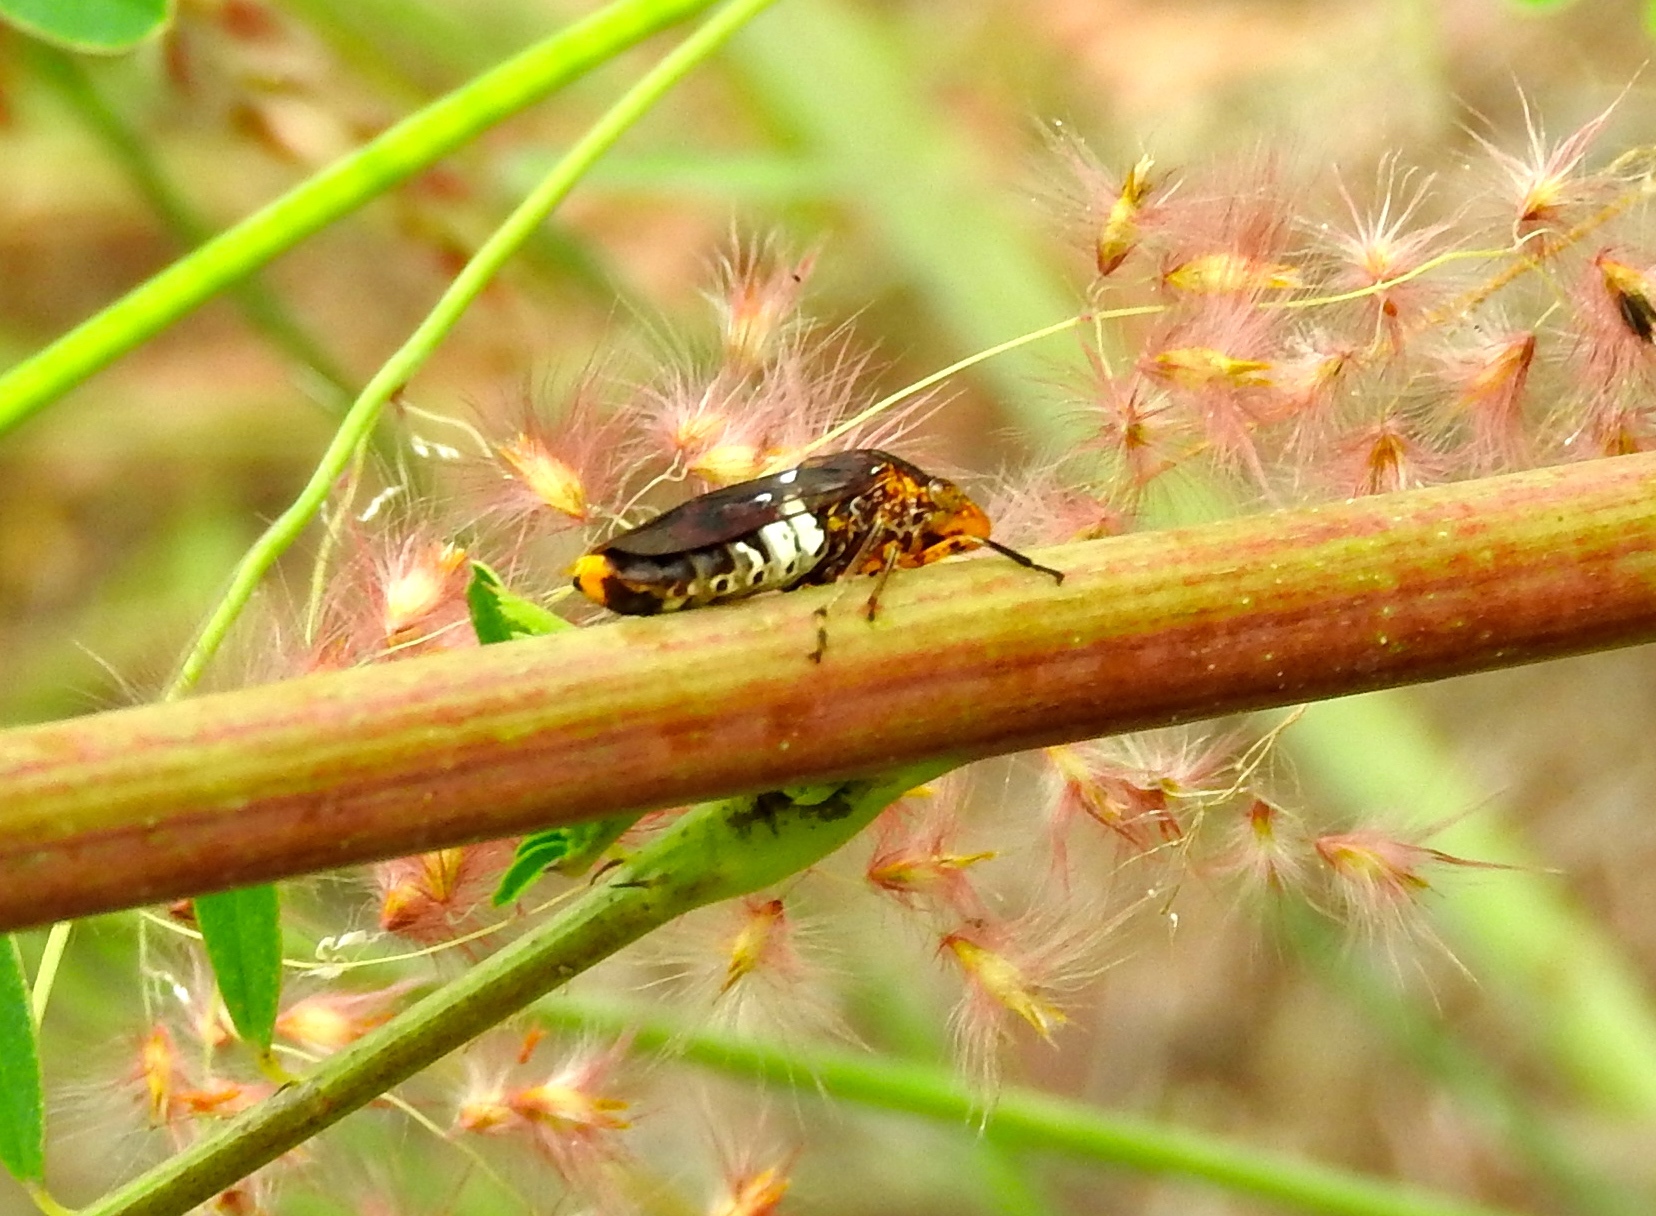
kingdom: Animalia
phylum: Arthropoda
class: Insecta
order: Hemiptera
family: Cicadellidae
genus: Homalodisca
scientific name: Homalodisca ichthyocephala
